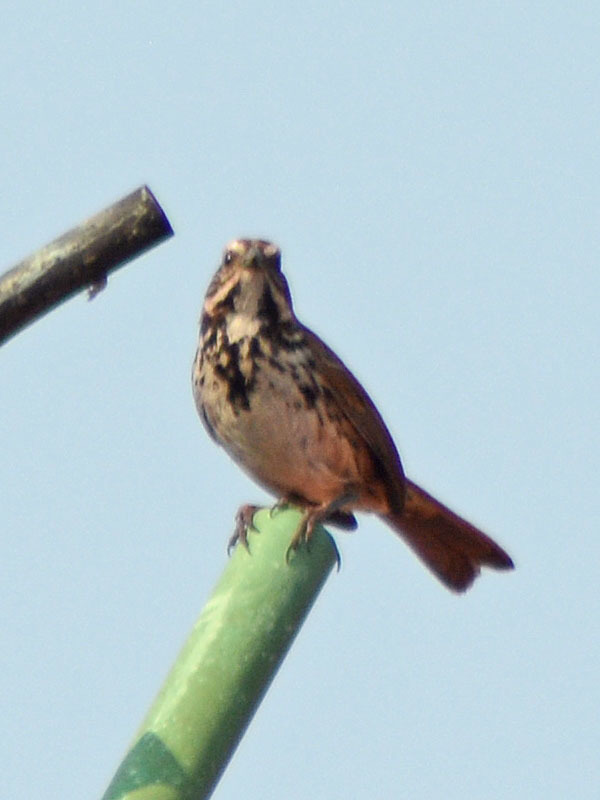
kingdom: Animalia
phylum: Chordata
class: Aves
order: Passeriformes
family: Passerellidae
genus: Melospiza
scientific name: Melospiza melodia
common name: Song sparrow
